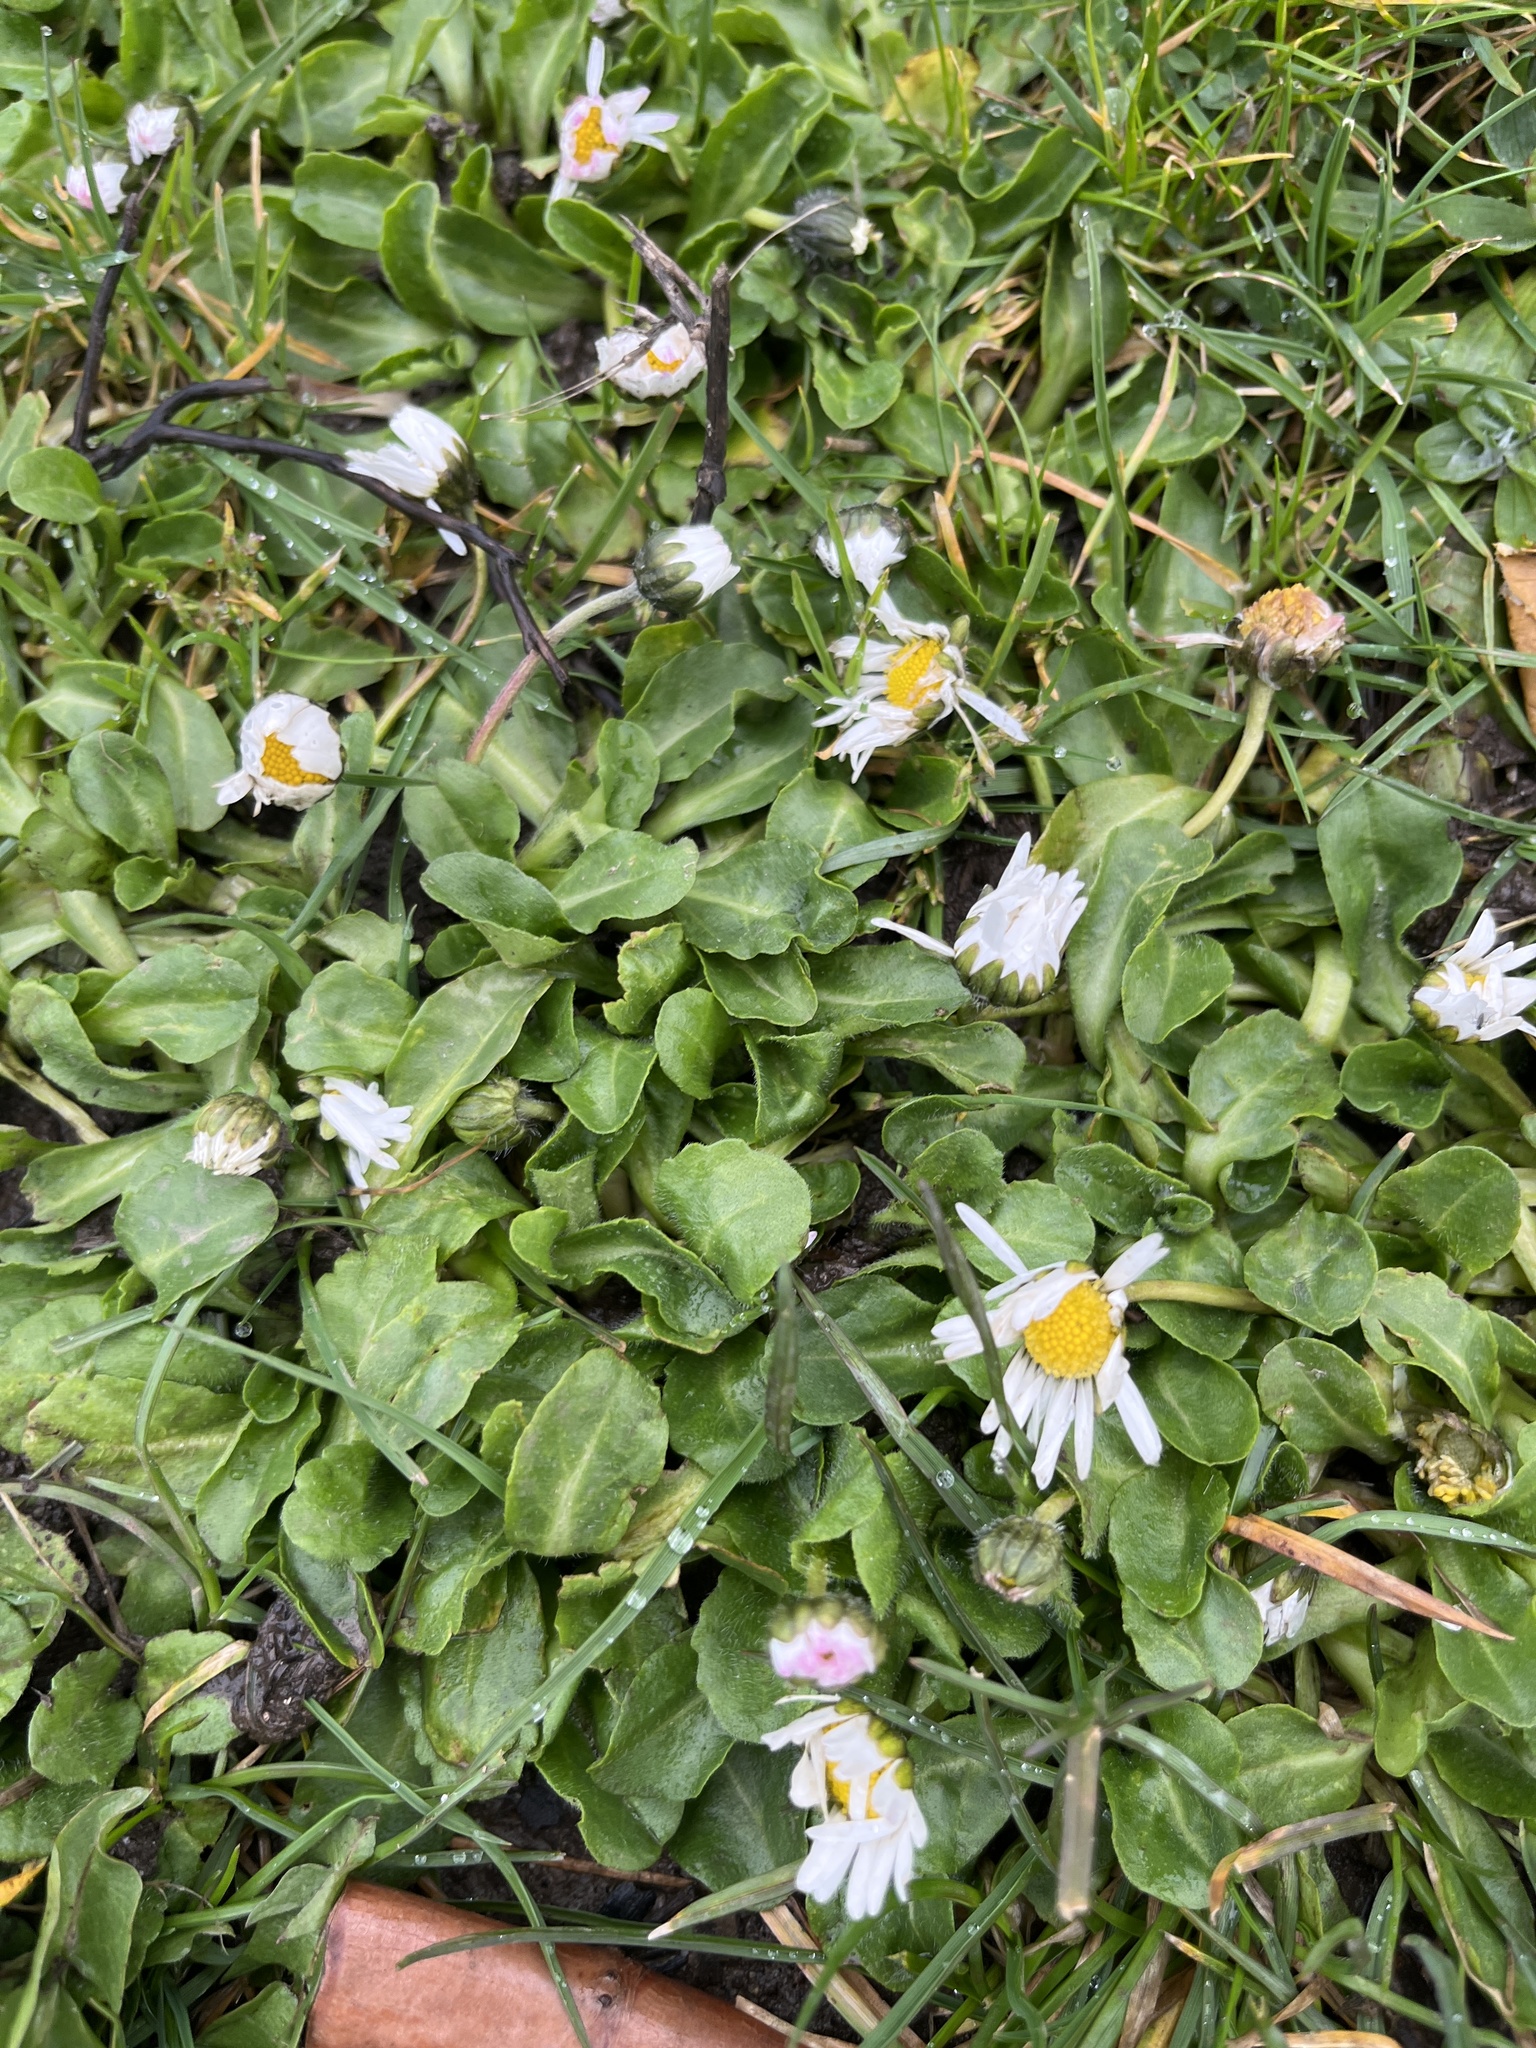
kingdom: Plantae
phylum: Tracheophyta
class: Magnoliopsida
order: Asterales
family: Asteraceae
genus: Bellis
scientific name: Bellis perennis
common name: Lawndaisy
